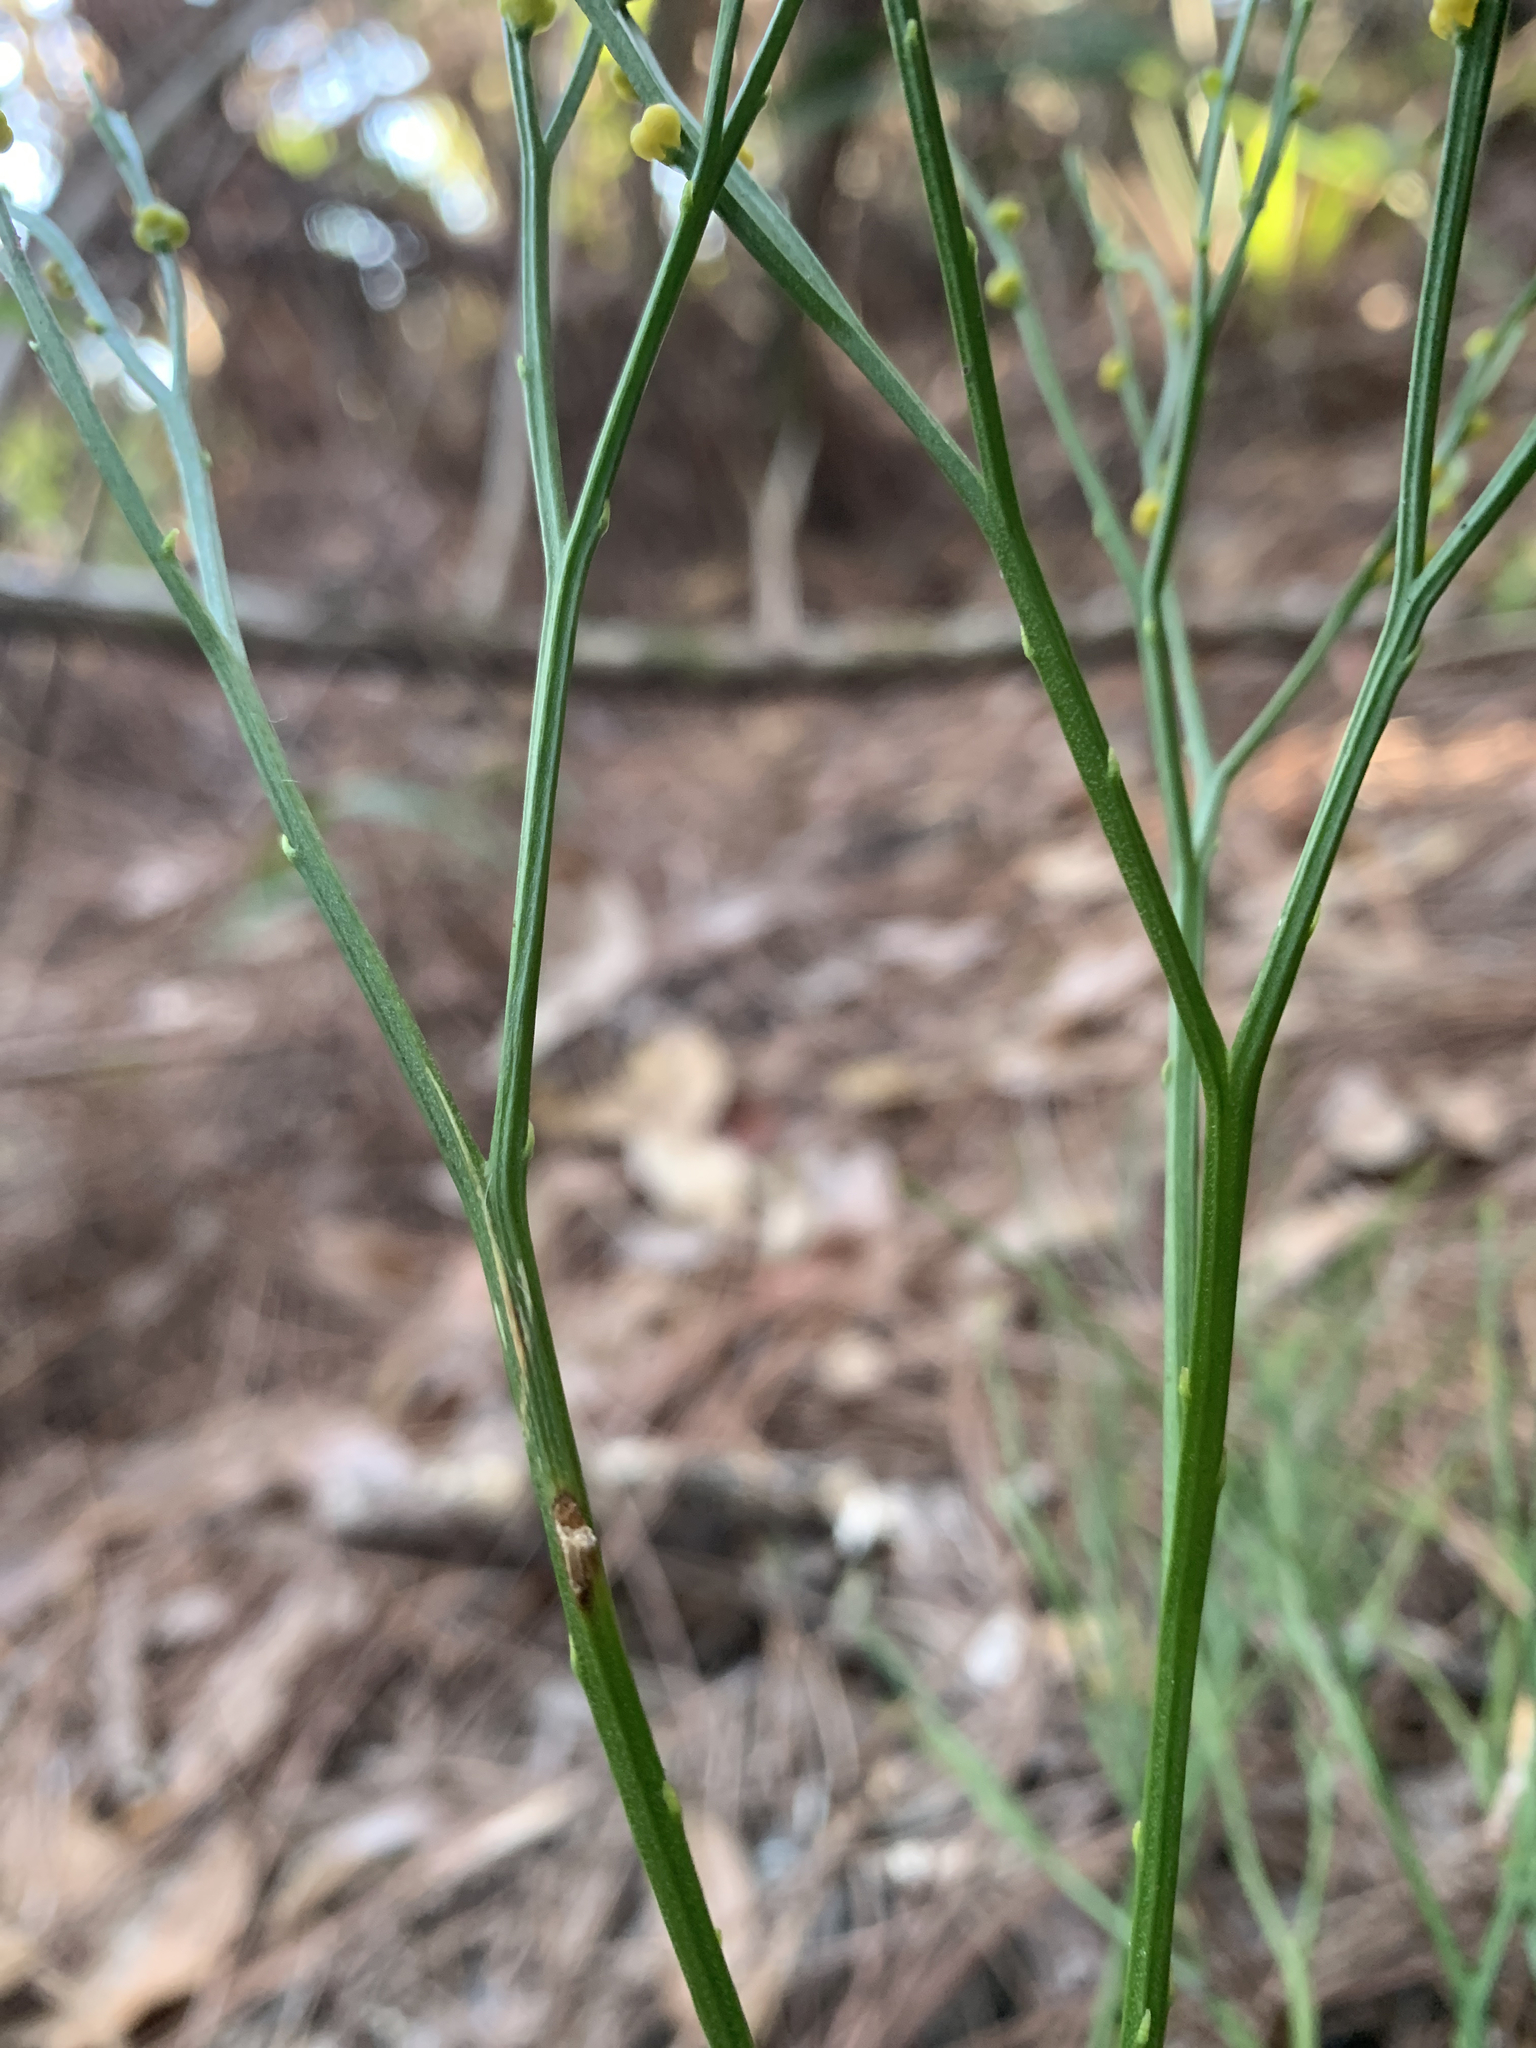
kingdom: Plantae
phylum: Tracheophyta
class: Polypodiopsida
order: Psilotales
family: Psilotaceae
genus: Psilotum
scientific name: Psilotum nudum
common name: Skeleton fork fern
